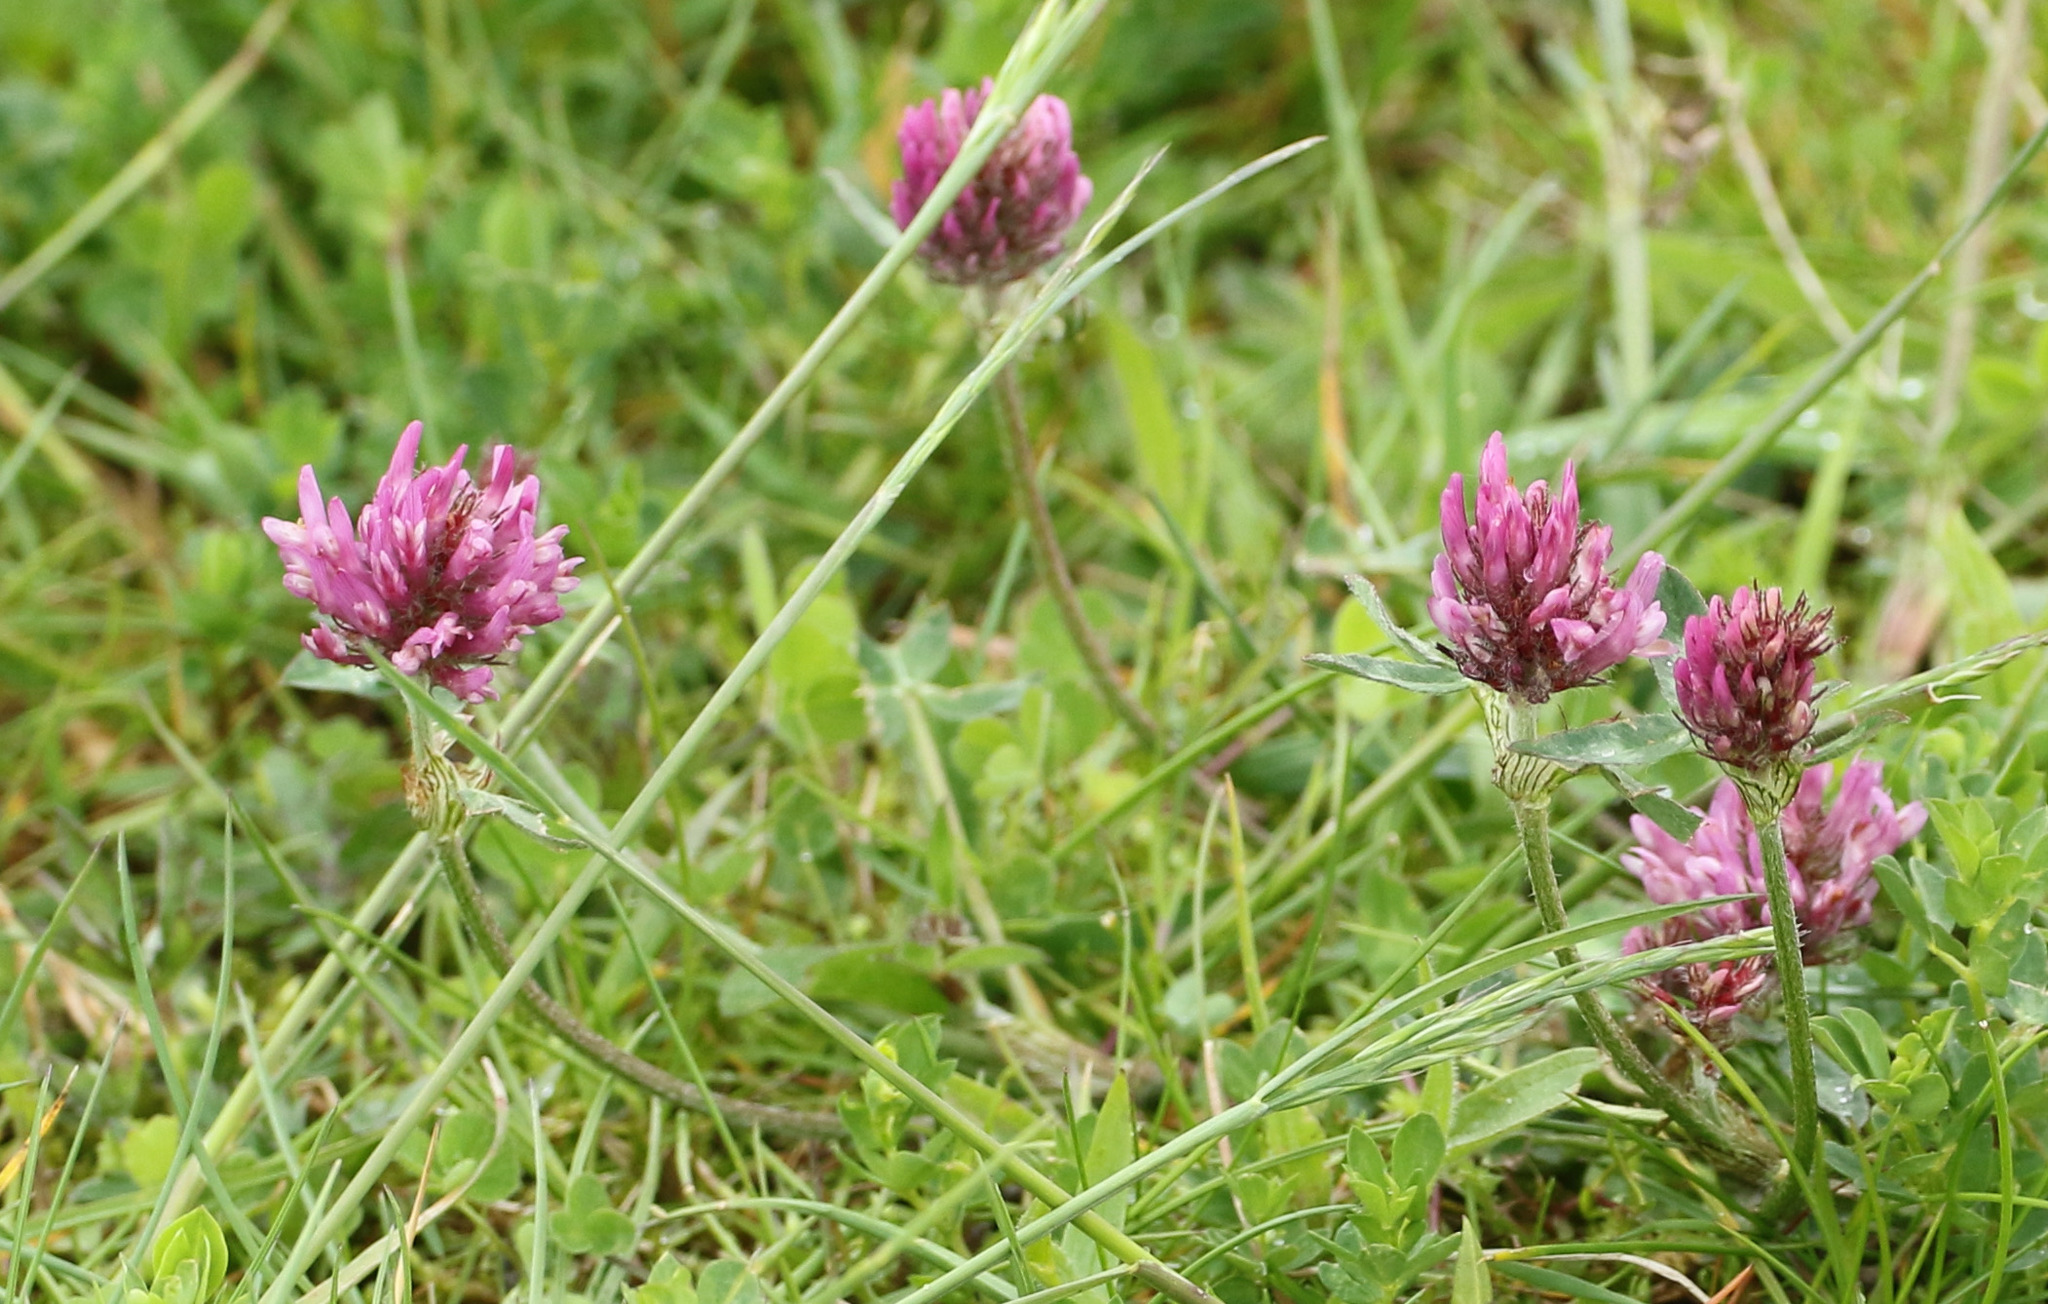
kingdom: Plantae
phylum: Tracheophyta
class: Magnoliopsida
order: Fabales
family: Fabaceae
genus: Trifolium
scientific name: Trifolium pratense
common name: Red clover
